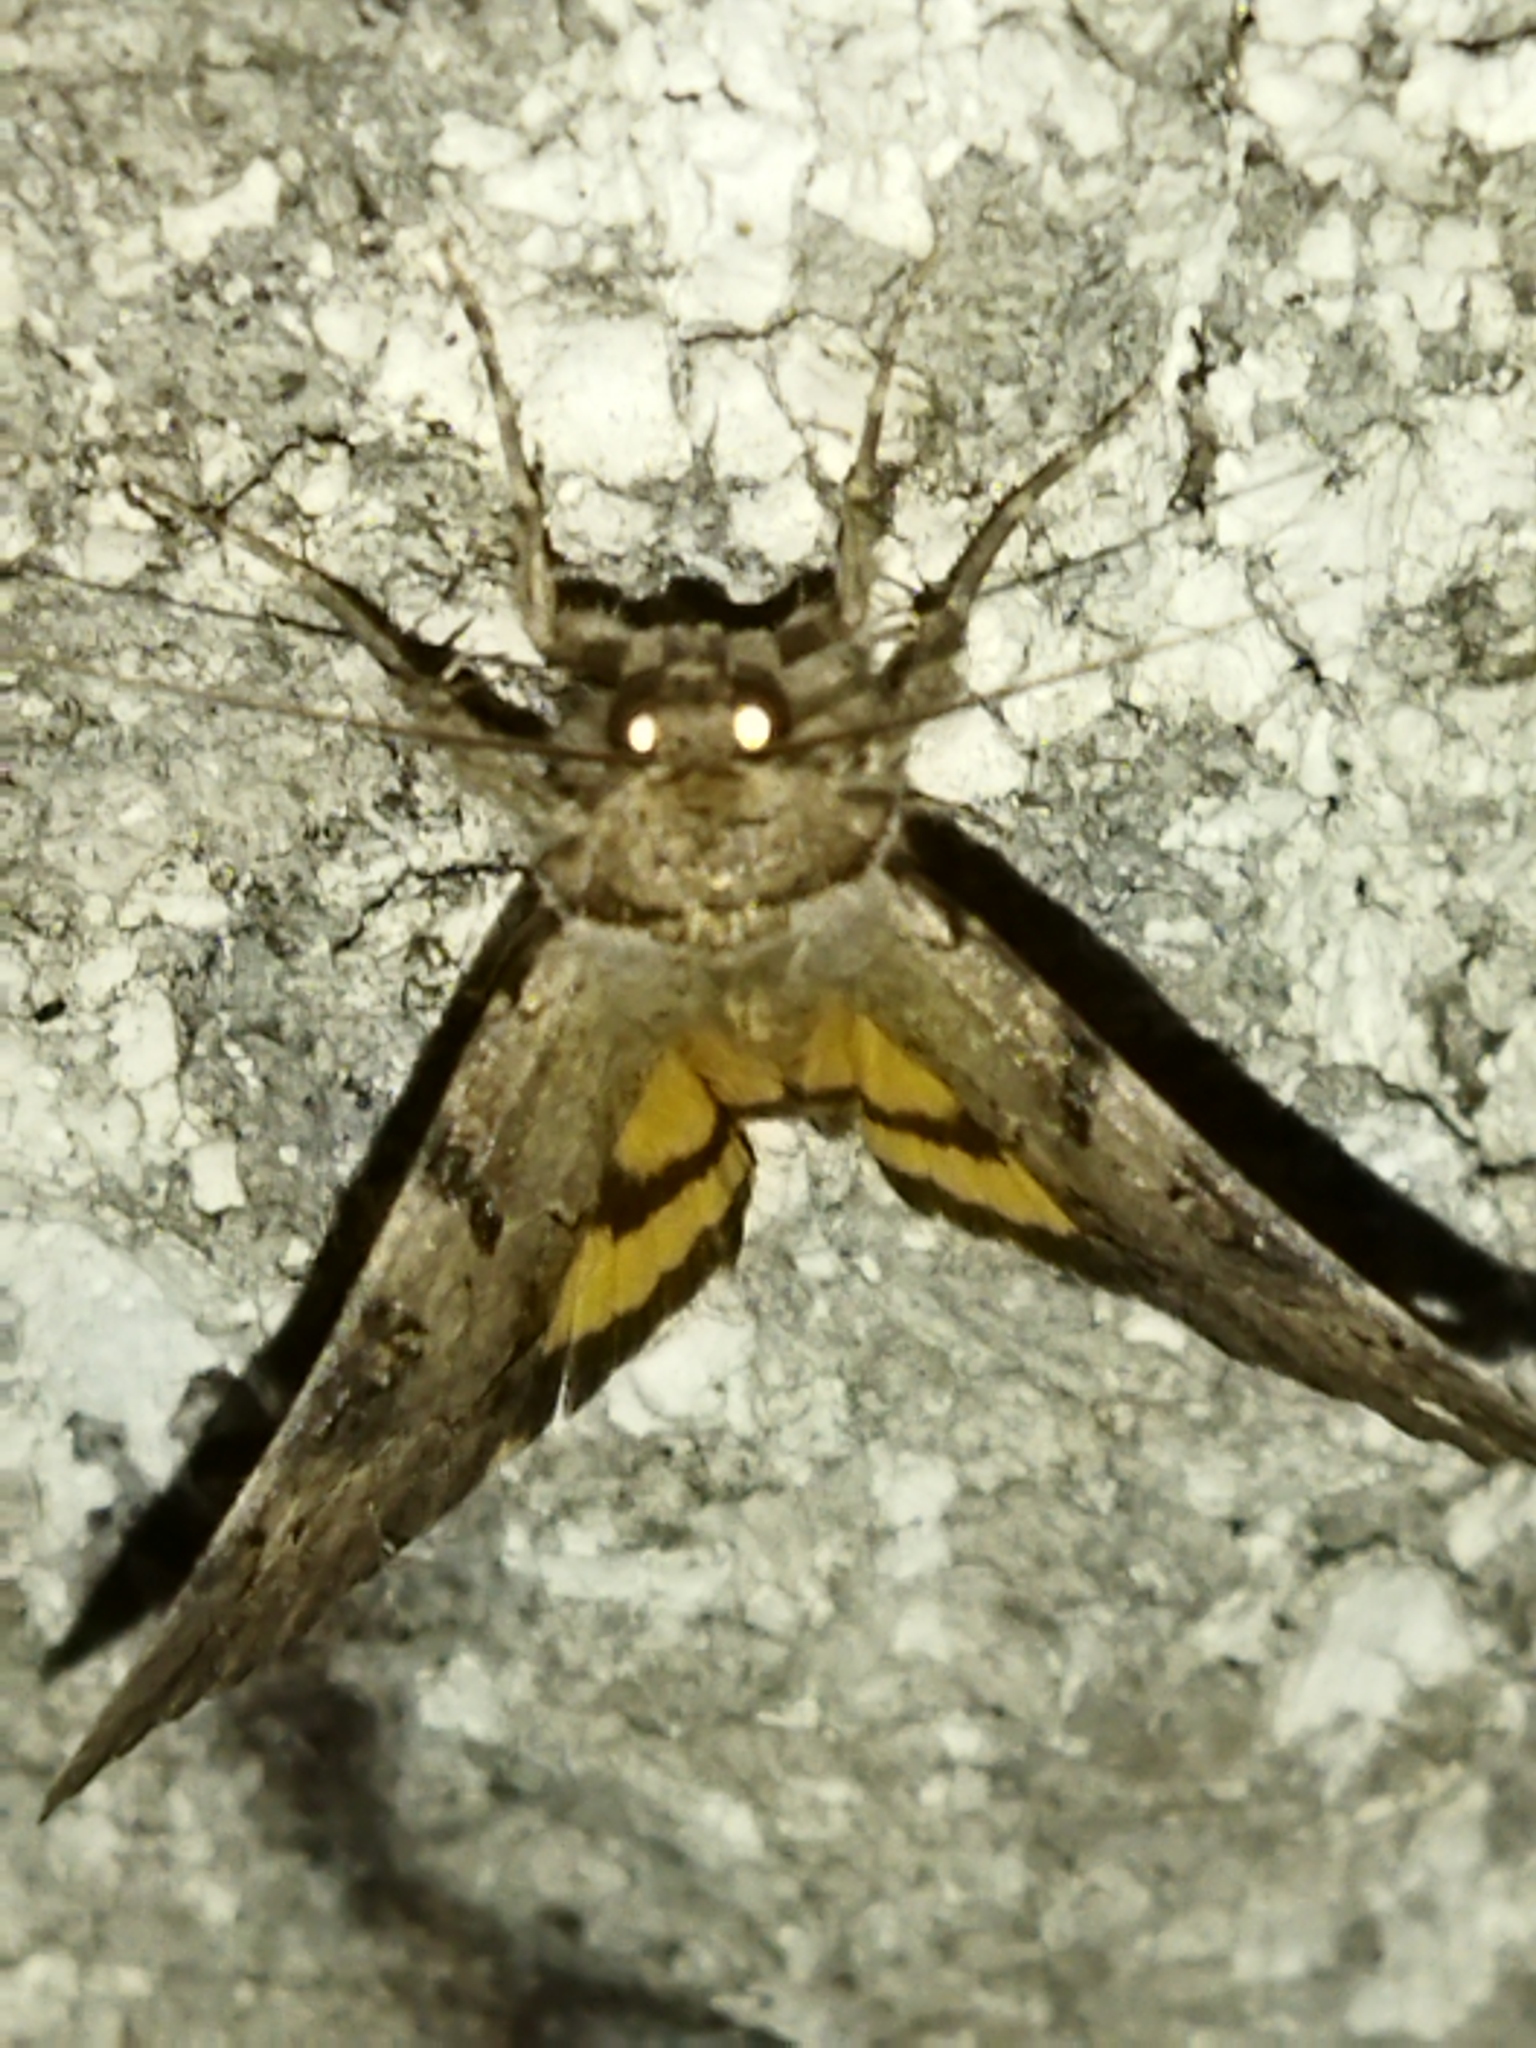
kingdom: Animalia
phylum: Arthropoda
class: Insecta
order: Lepidoptera
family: Erebidae
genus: Catocala
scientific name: Catocala hymenaea
